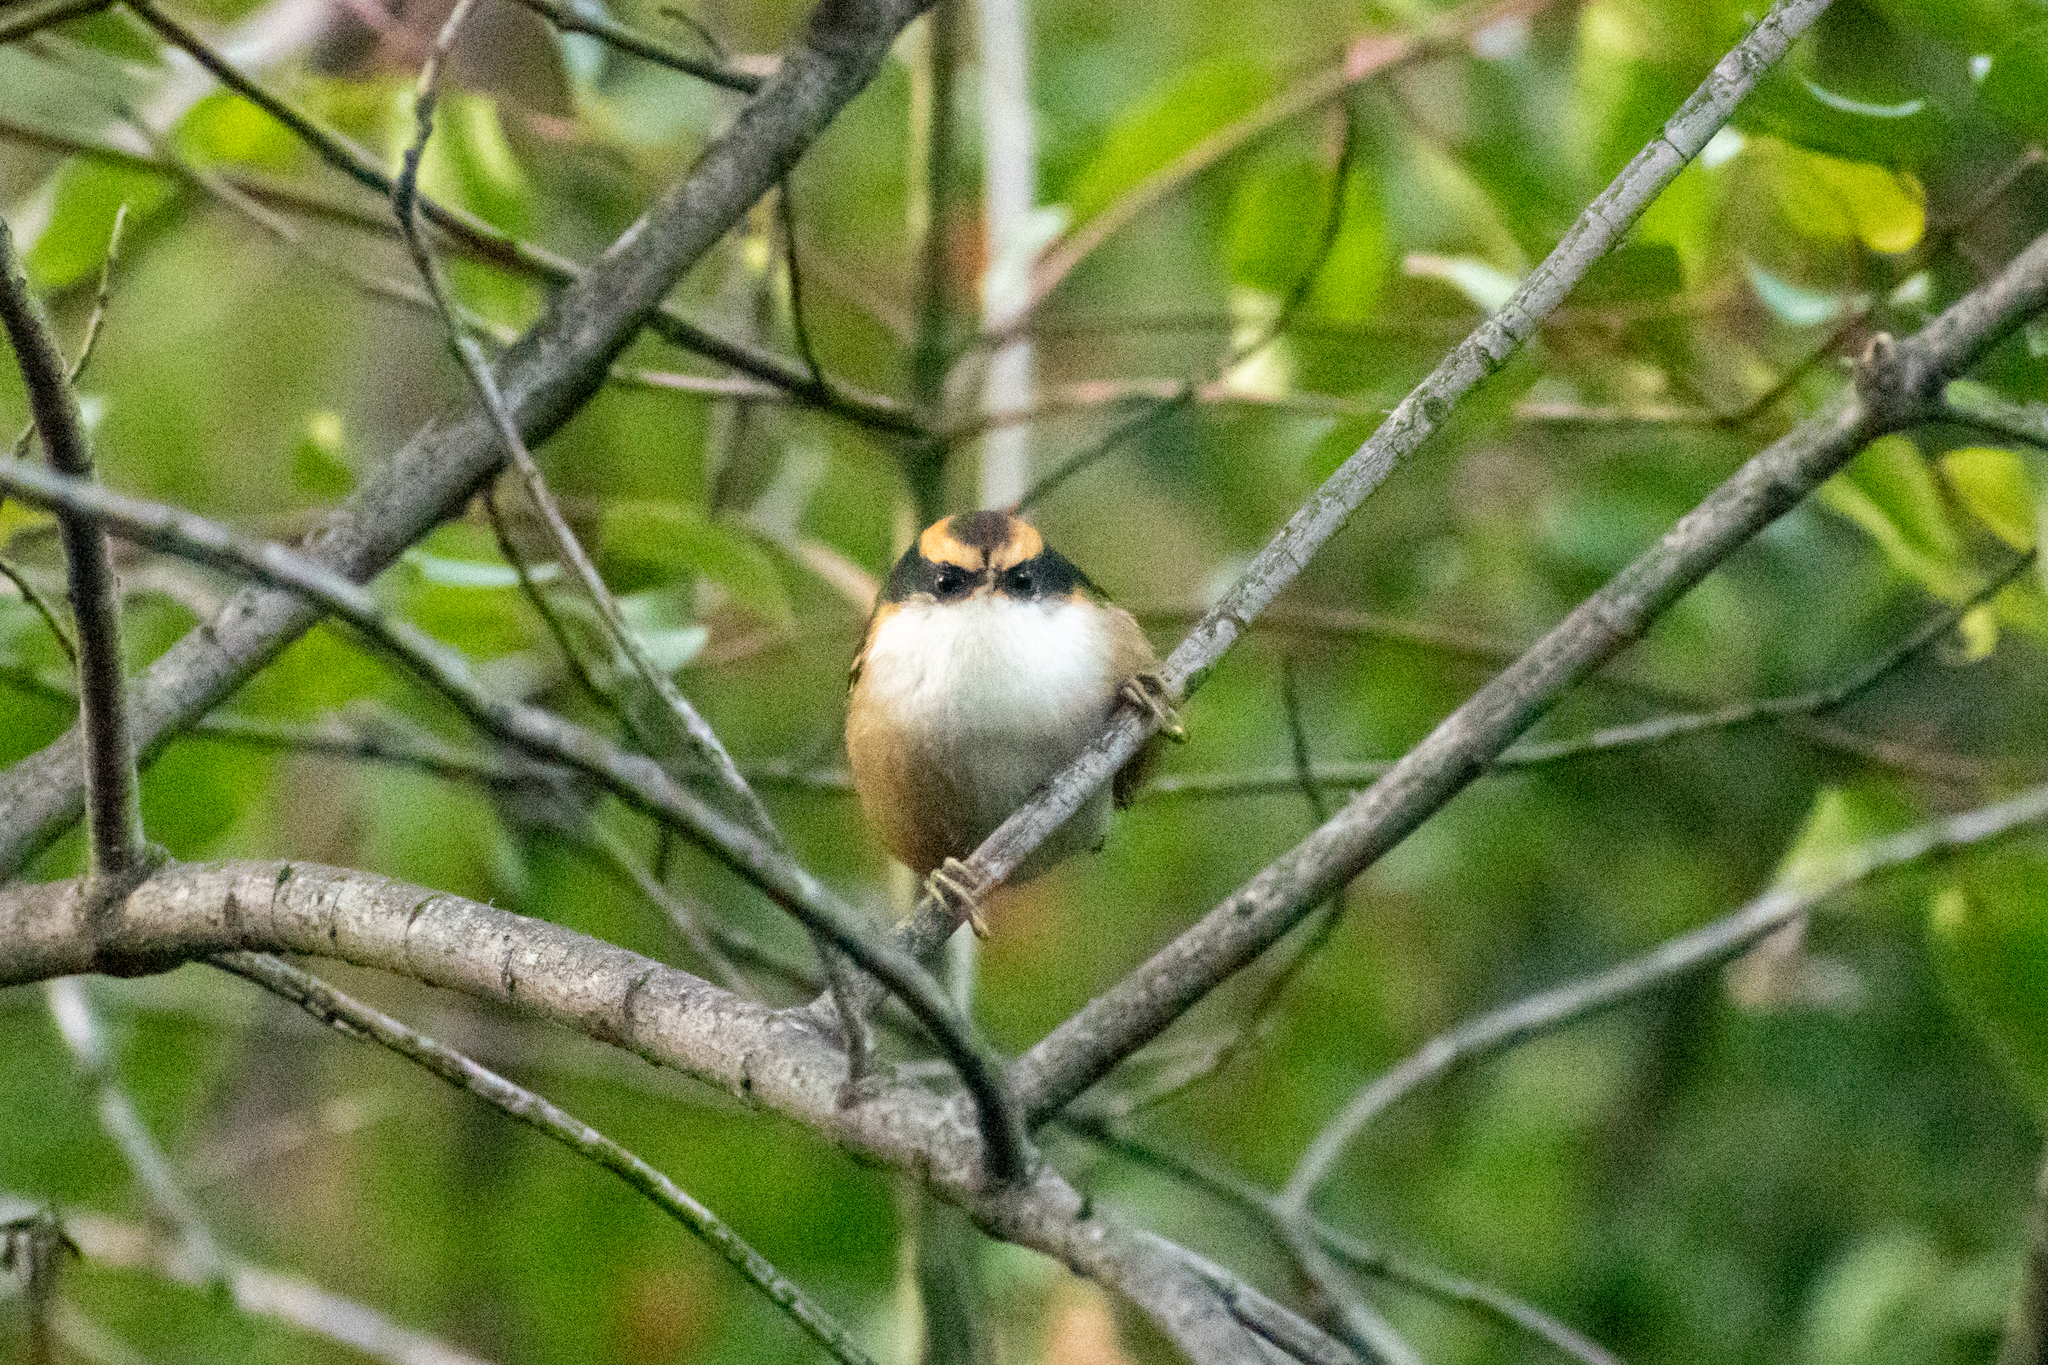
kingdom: Animalia
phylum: Chordata
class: Aves
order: Passeriformes
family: Furnariidae
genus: Aphrastura
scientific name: Aphrastura spinicauda
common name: Thorn-tailed rayadito
